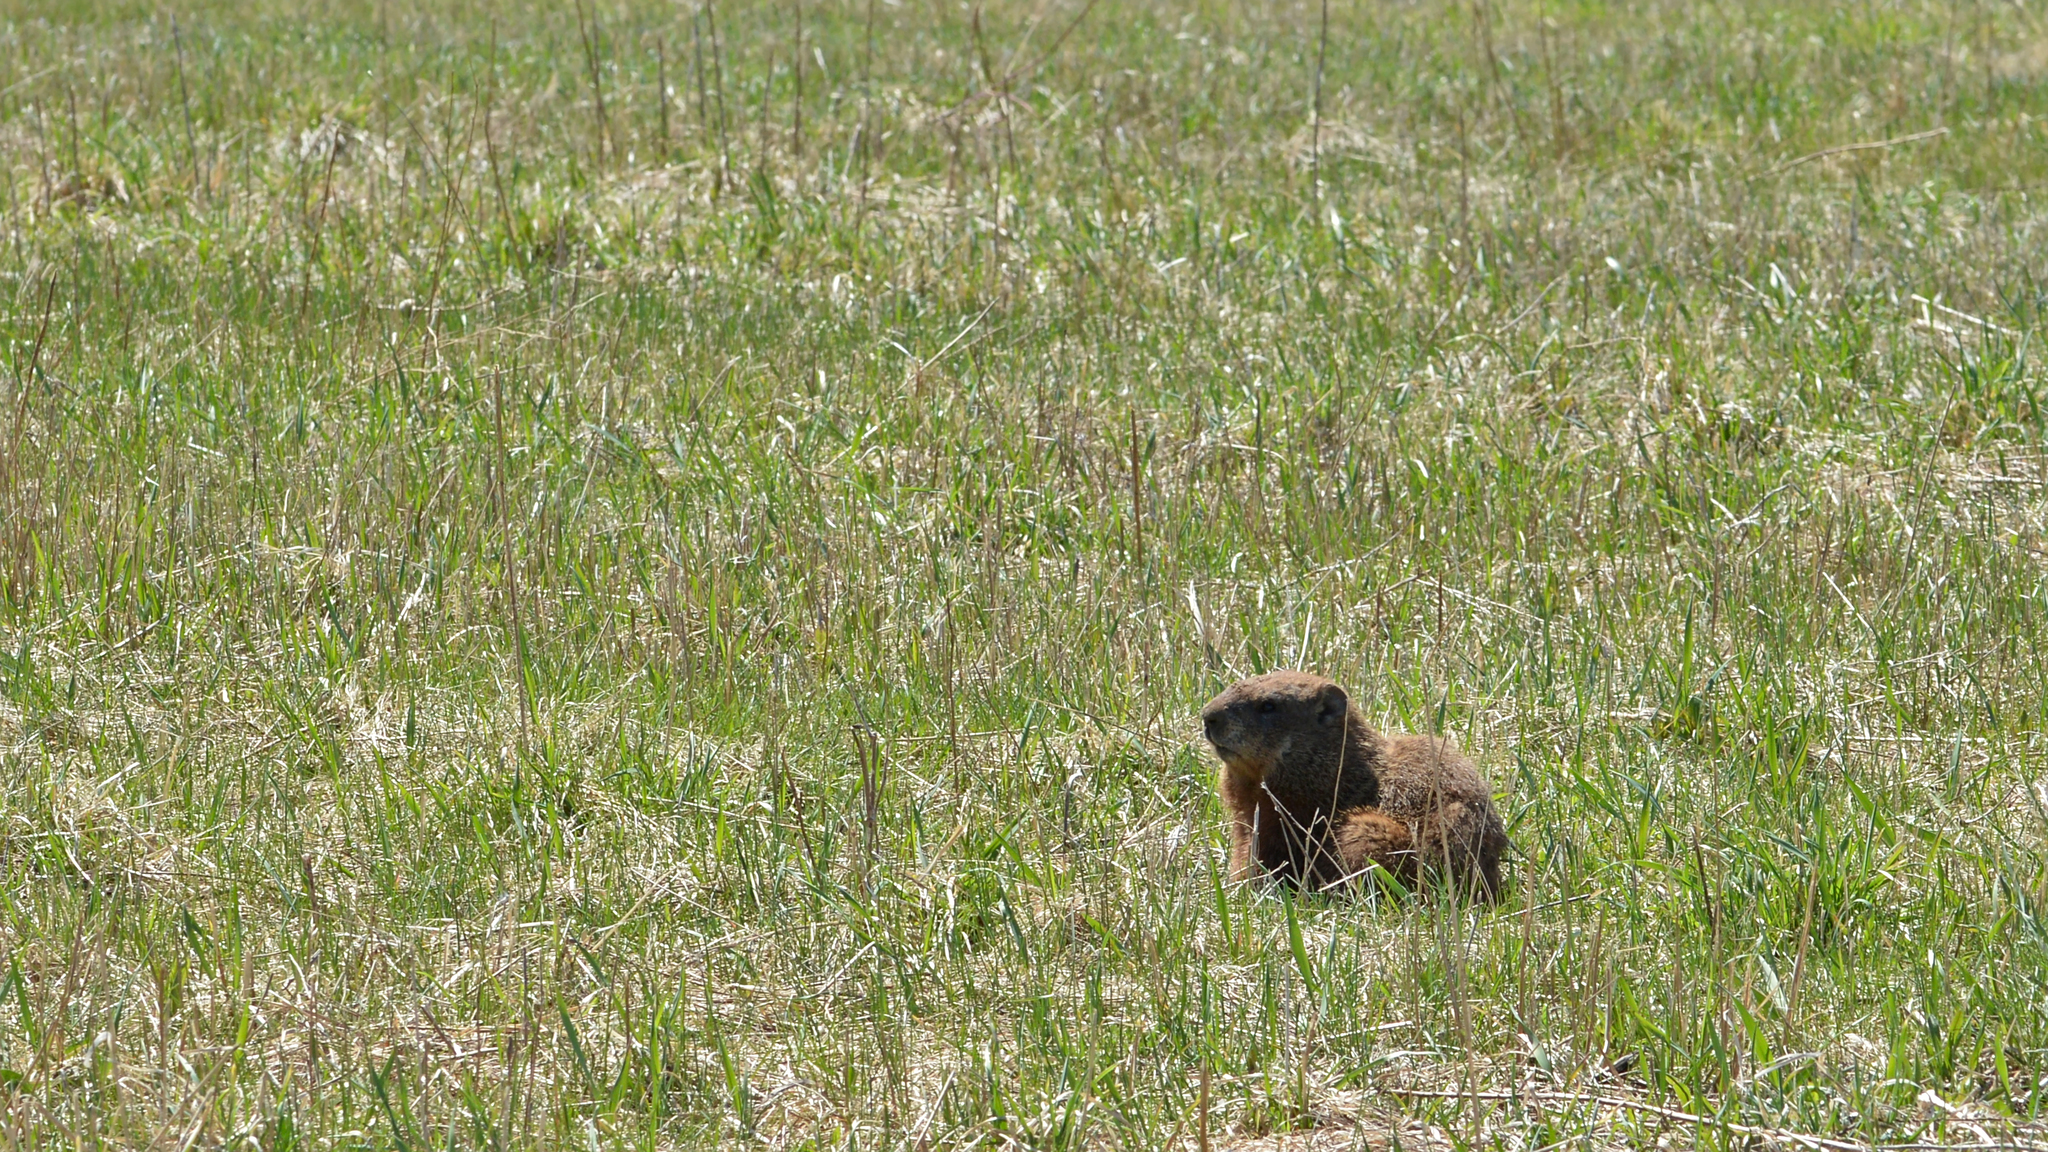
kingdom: Animalia
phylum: Chordata
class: Mammalia
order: Rodentia
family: Sciuridae
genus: Marmota
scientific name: Marmota monax
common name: Groundhog
